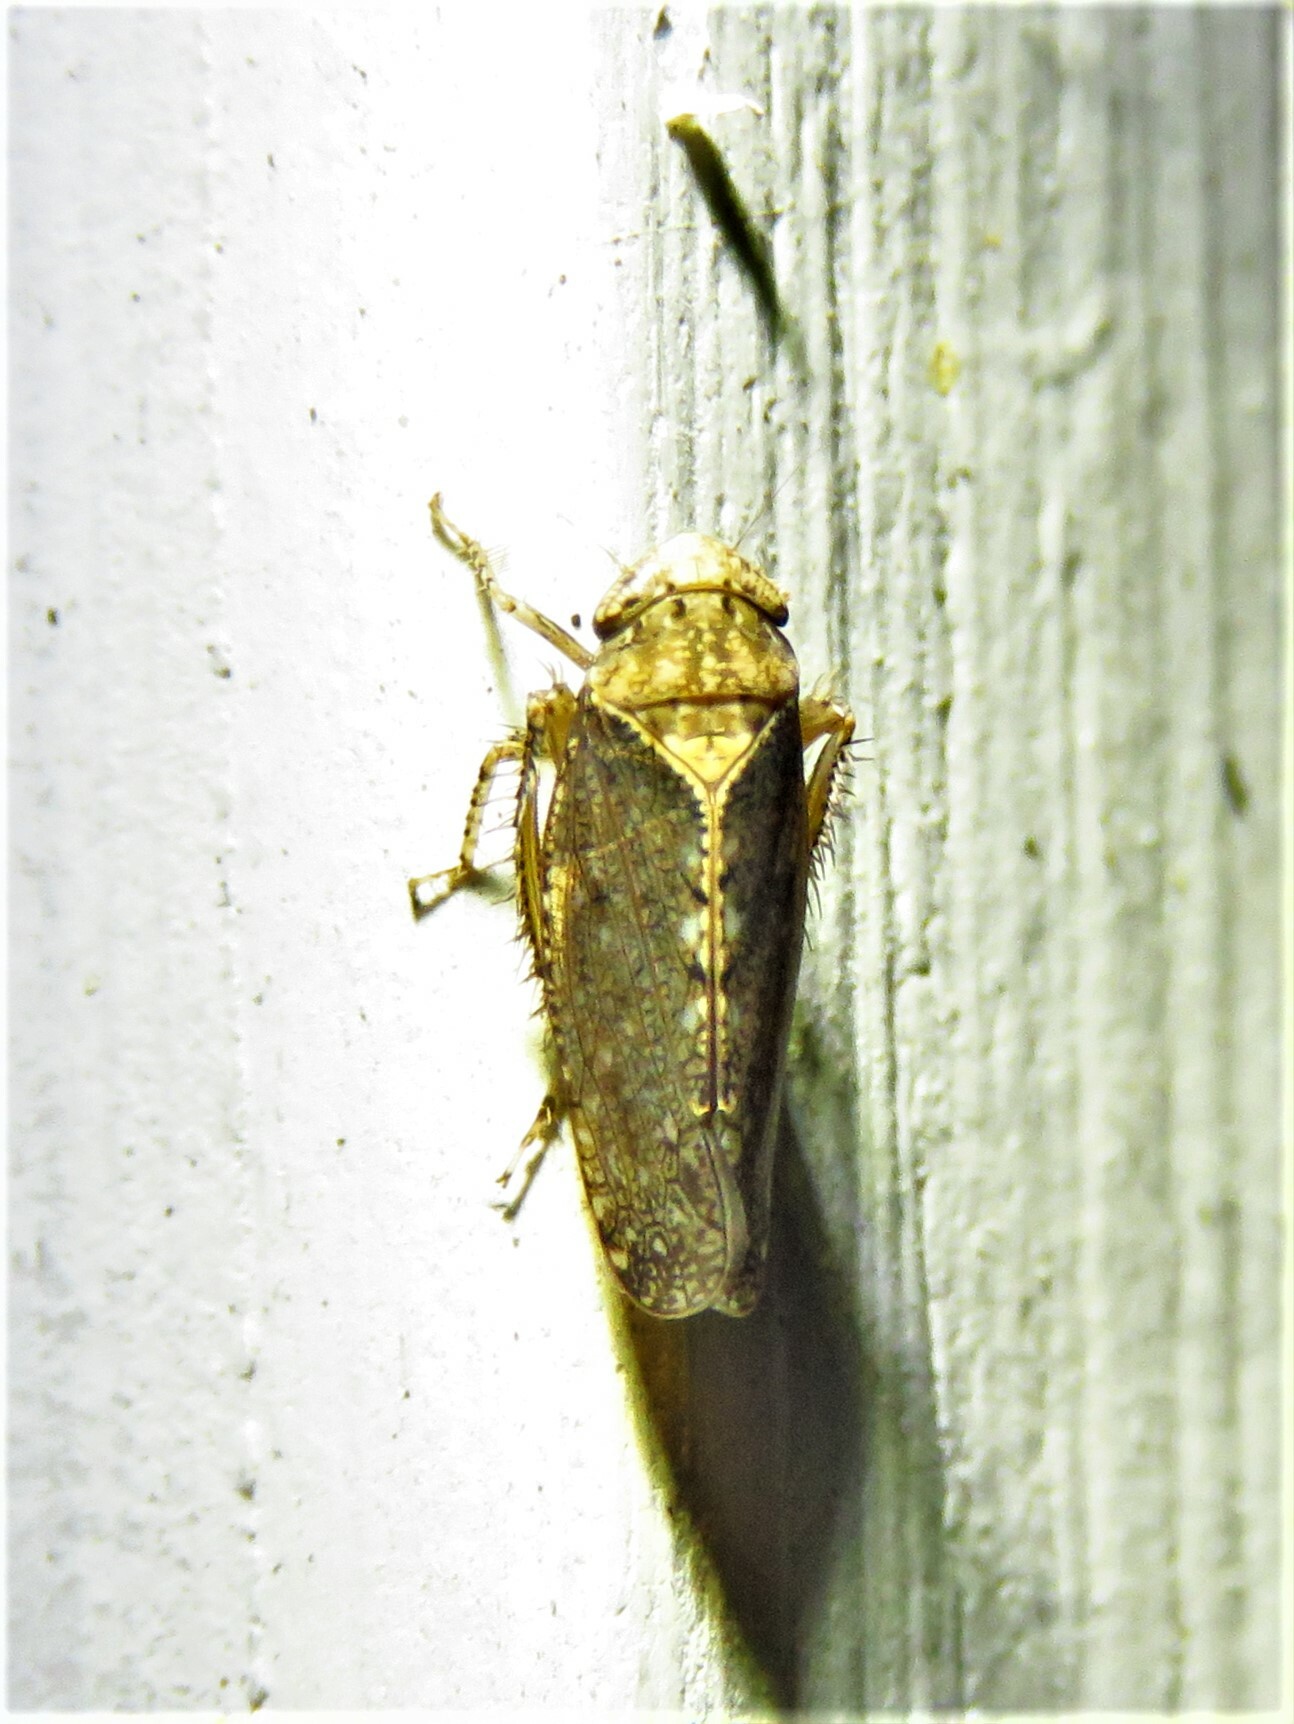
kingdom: Animalia
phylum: Arthropoda
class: Insecta
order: Hemiptera
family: Cicadellidae
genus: Excultanus
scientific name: Excultanus excultus
